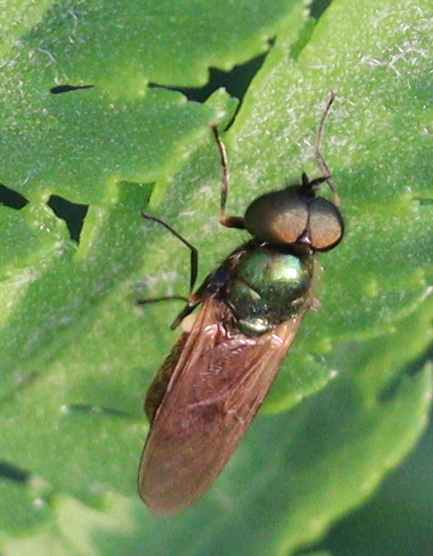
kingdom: Animalia
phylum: Arthropoda
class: Insecta
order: Diptera
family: Stratiomyidae
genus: Chloromyia
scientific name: Chloromyia formosa
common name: Soldier fly
